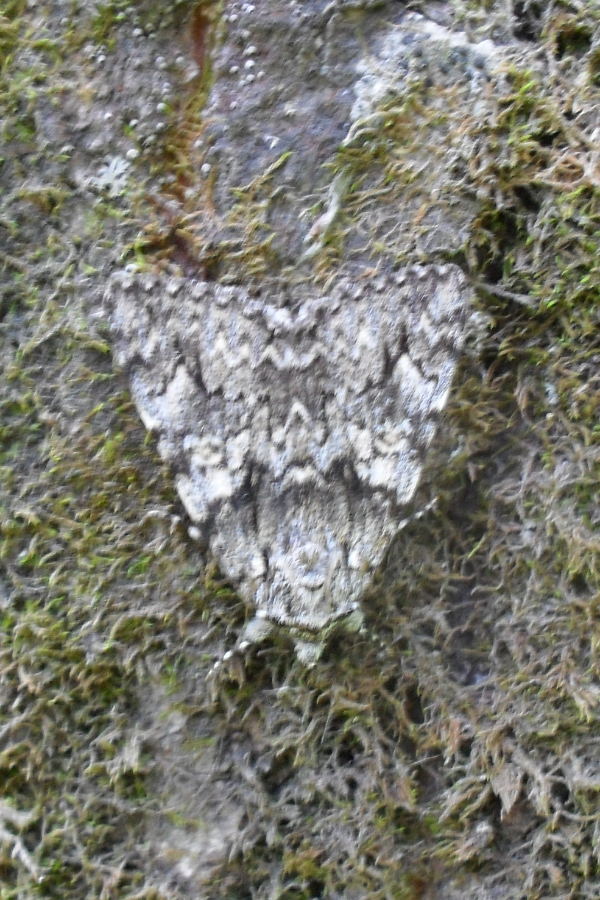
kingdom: Animalia
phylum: Arthropoda
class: Insecta
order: Lepidoptera
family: Erebidae
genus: Catocala
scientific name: Catocala promissa
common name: Light crimson underwing
